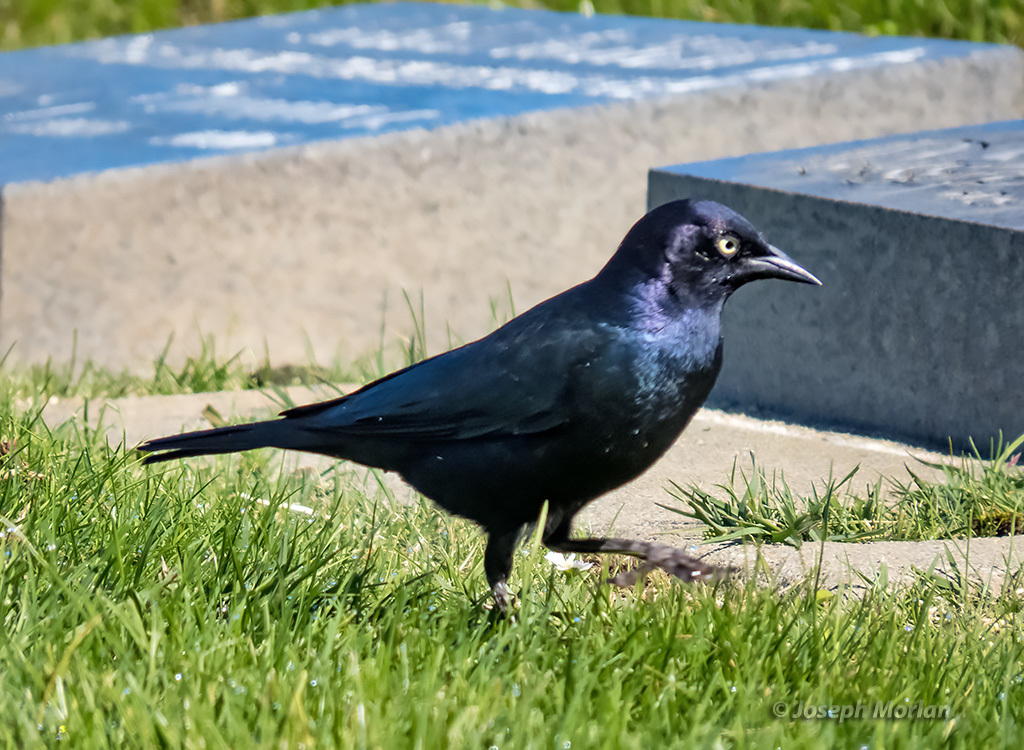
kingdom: Animalia
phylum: Chordata
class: Aves
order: Passeriformes
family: Icteridae
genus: Euphagus
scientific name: Euphagus cyanocephalus
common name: Brewer's blackbird
